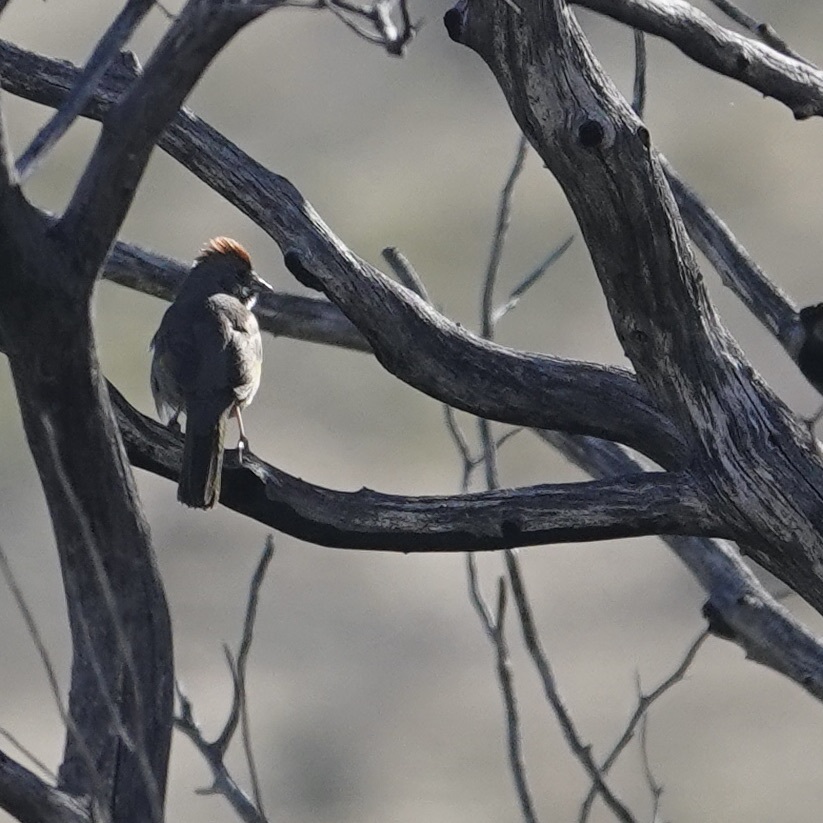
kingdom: Animalia
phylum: Chordata
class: Aves
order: Passeriformes
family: Passerellidae
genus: Aimophila
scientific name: Aimophila ruficeps
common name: Rufous-crowned sparrow
